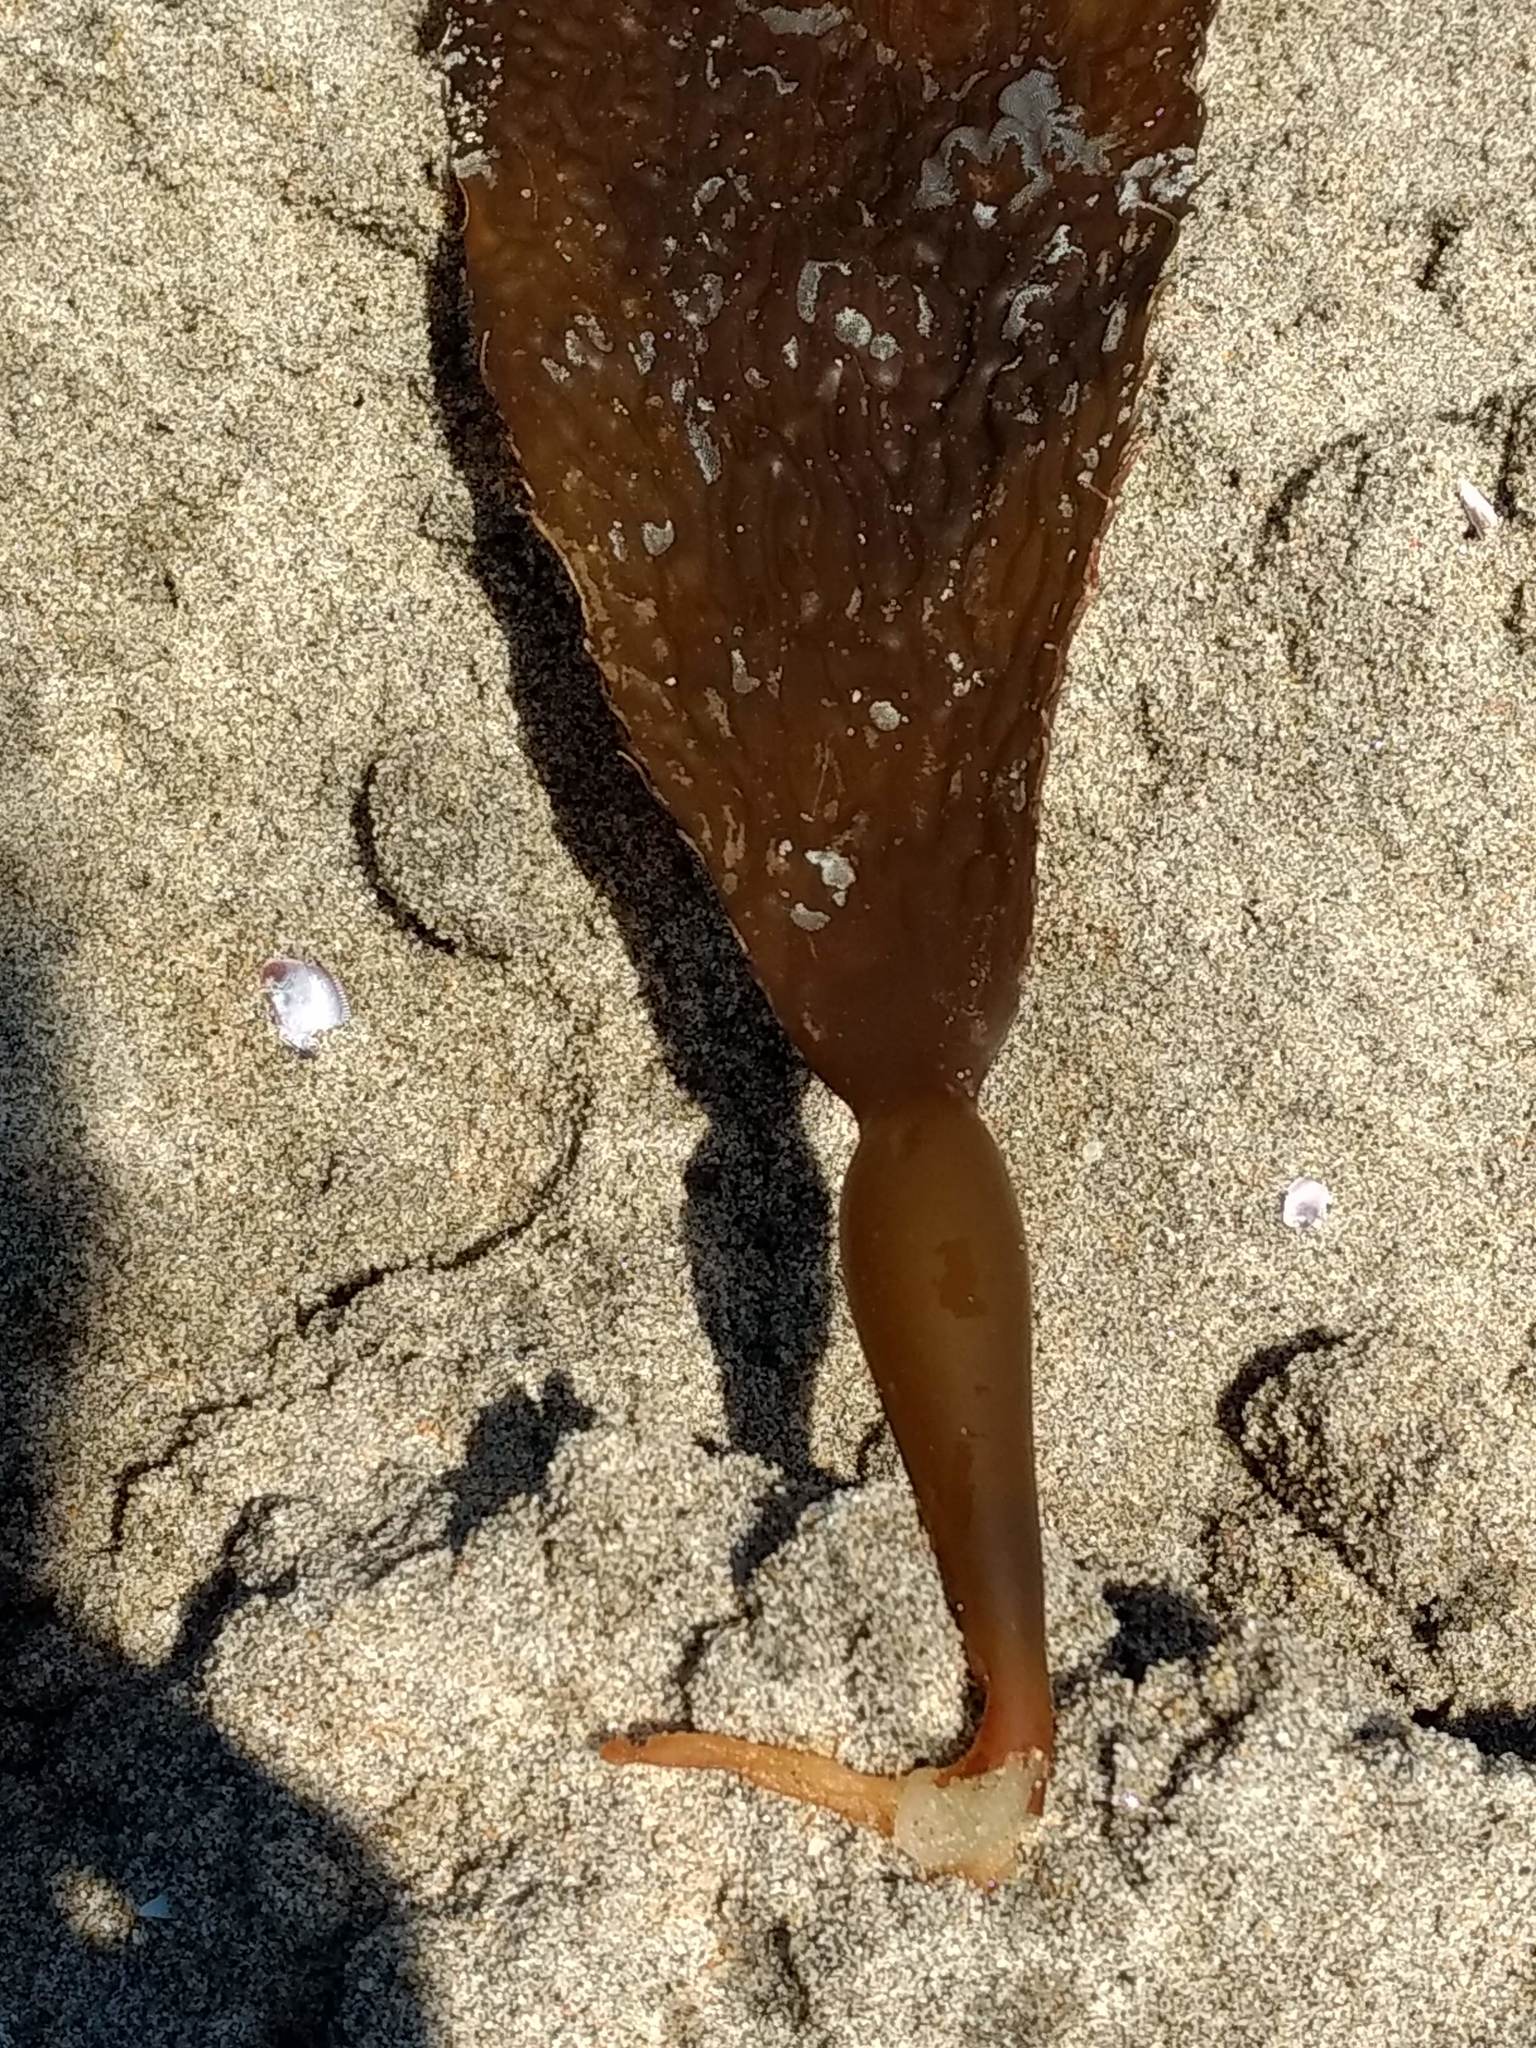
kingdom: Chromista
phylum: Ochrophyta
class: Phaeophyceae
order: Laminariales
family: Laminariaceae
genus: Macrocystis
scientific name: Macrocystis pyrifera
